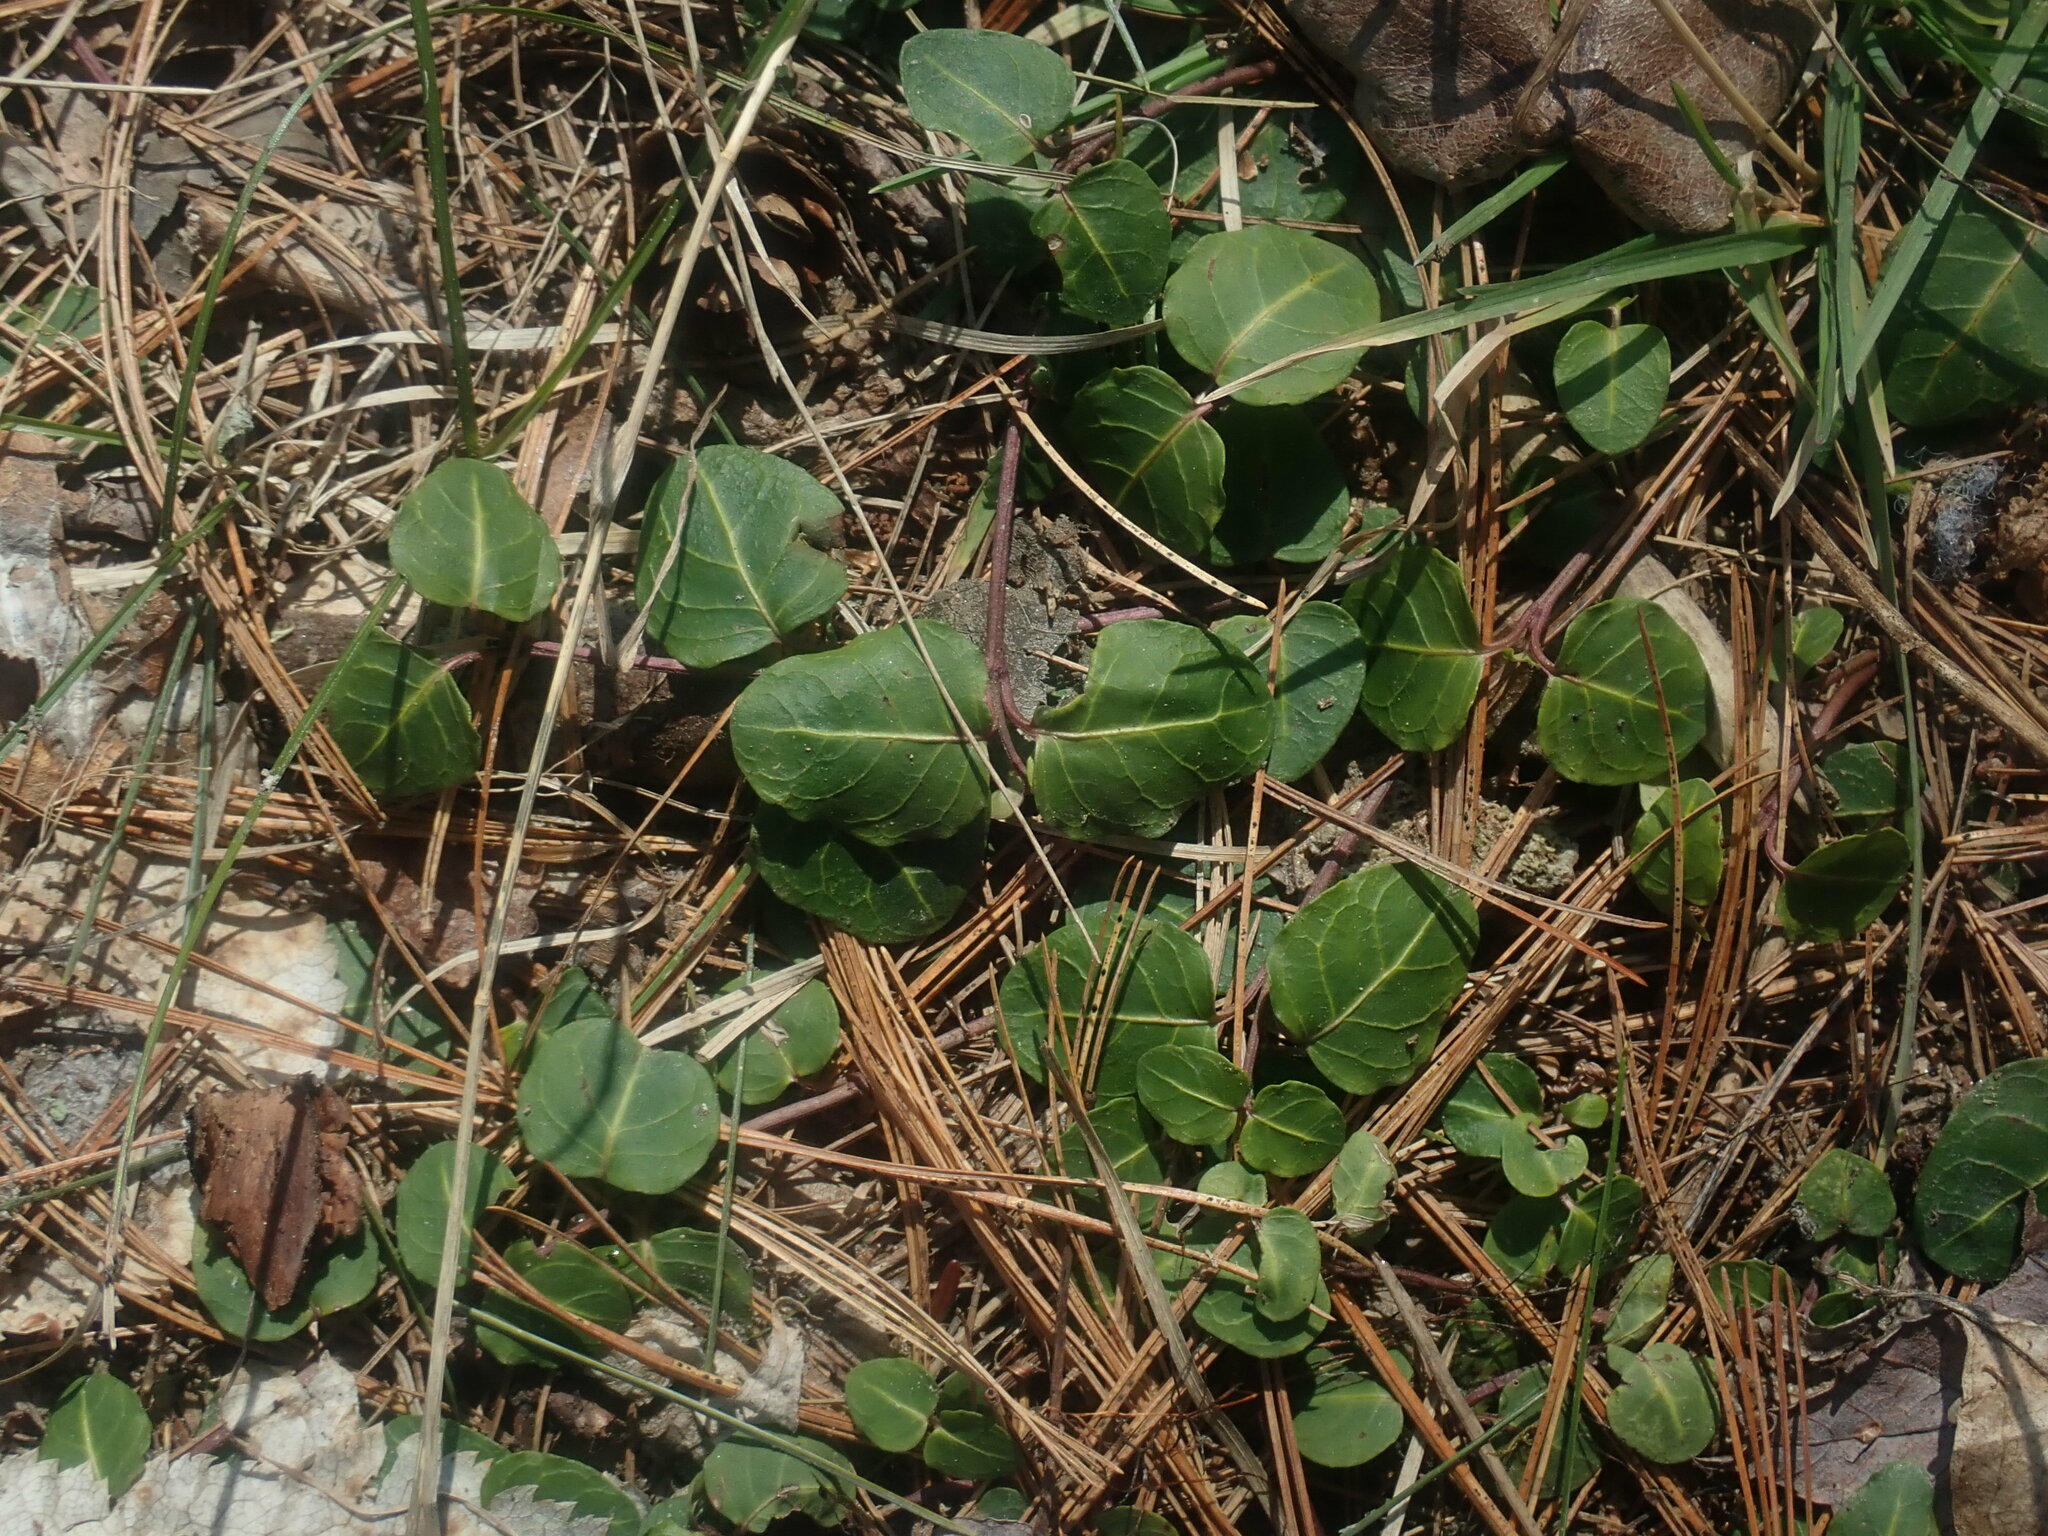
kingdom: Plantae
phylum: Tracheophyta
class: Magnoliopsida
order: Gentianales
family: Rubiaceae
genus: Mitchella
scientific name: Mitchella repens
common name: Partridge-berry
